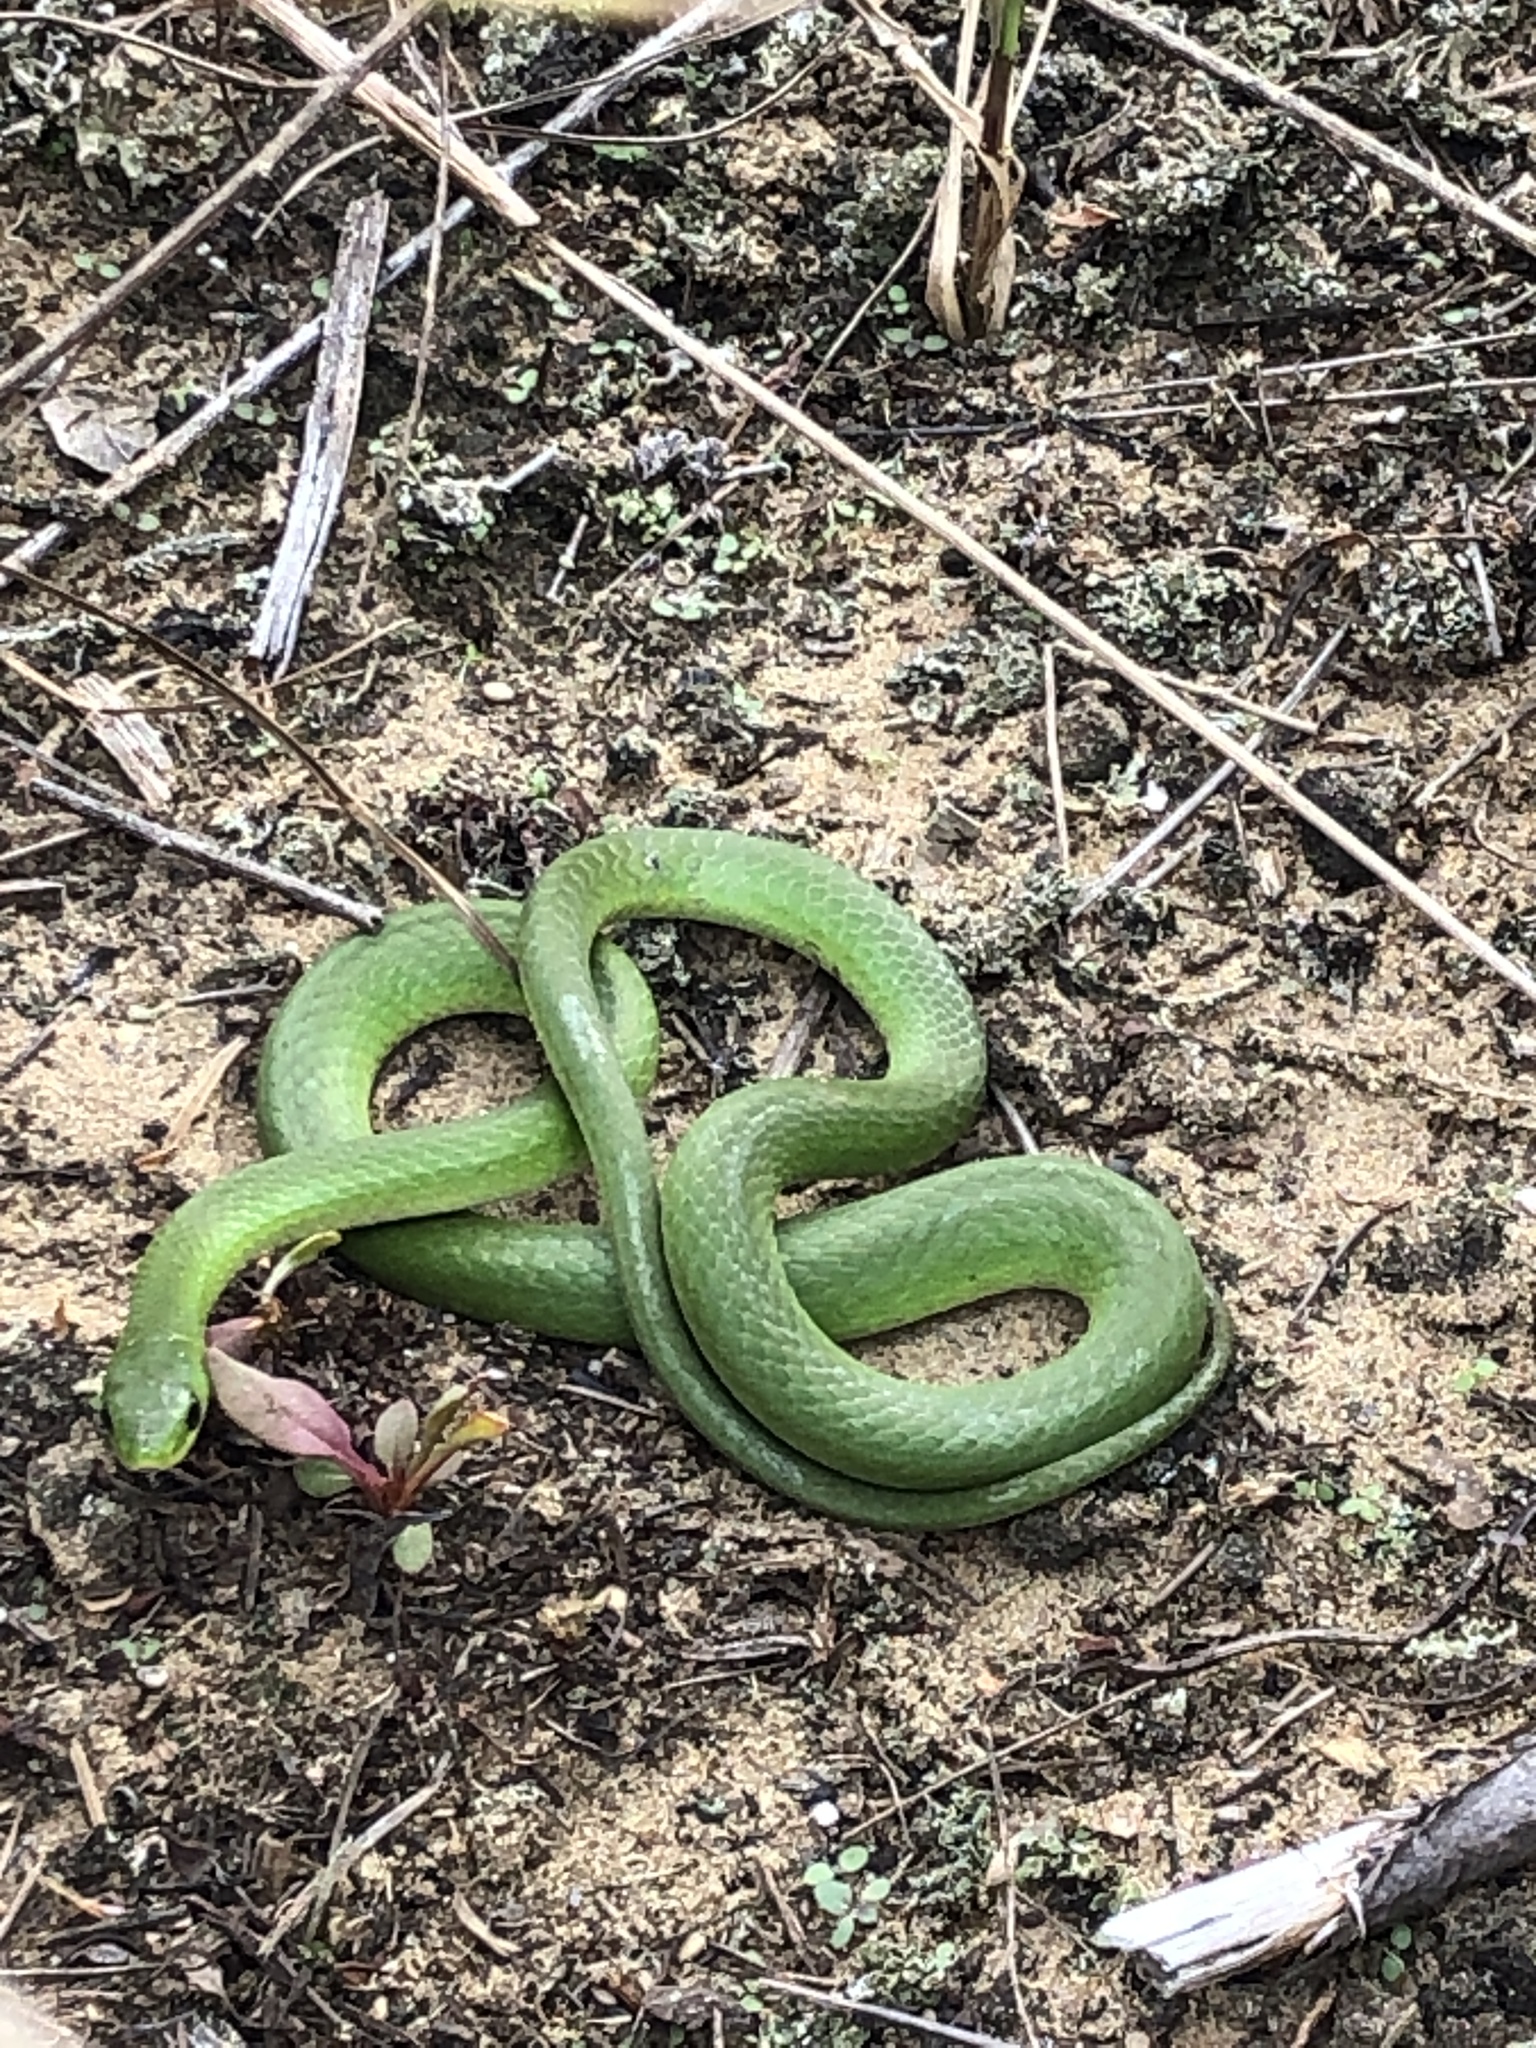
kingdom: Animalia
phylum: Chordata
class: Squamata
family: Colubridae
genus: Opheodrys
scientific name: Opheodrys vernalis
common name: Smooth green snake
